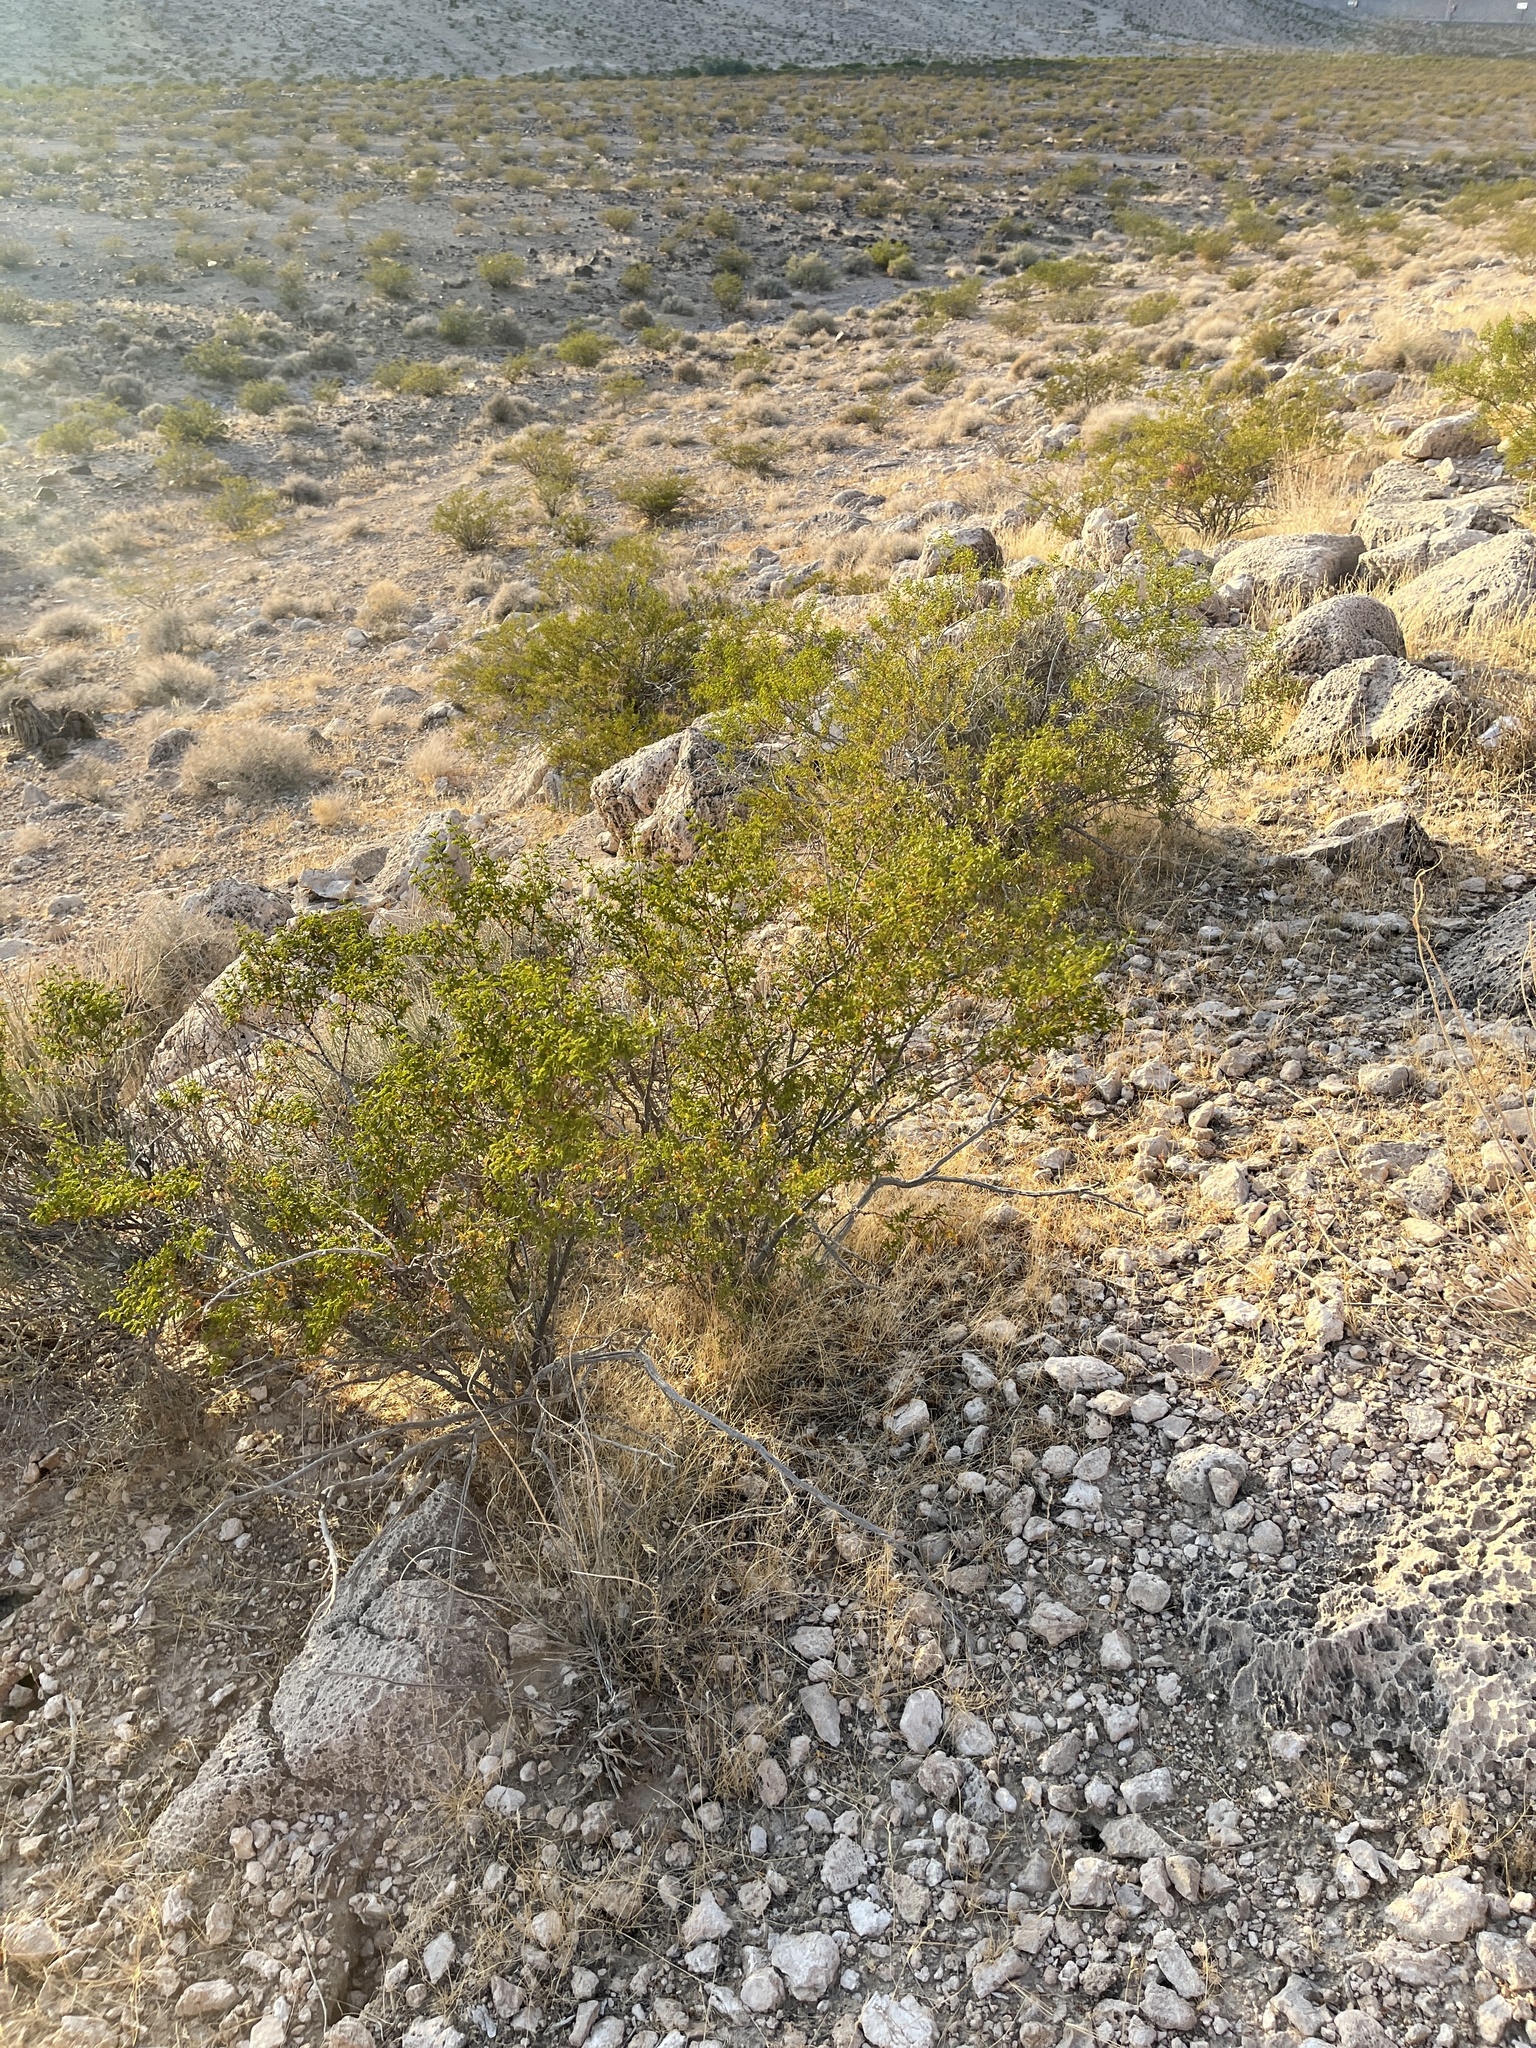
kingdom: Plantae
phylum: Tracheophyta
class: Magnoliopsida
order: Zygophyllales
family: Zygophyllaceae
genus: Larrea
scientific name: Larrea tridentata
